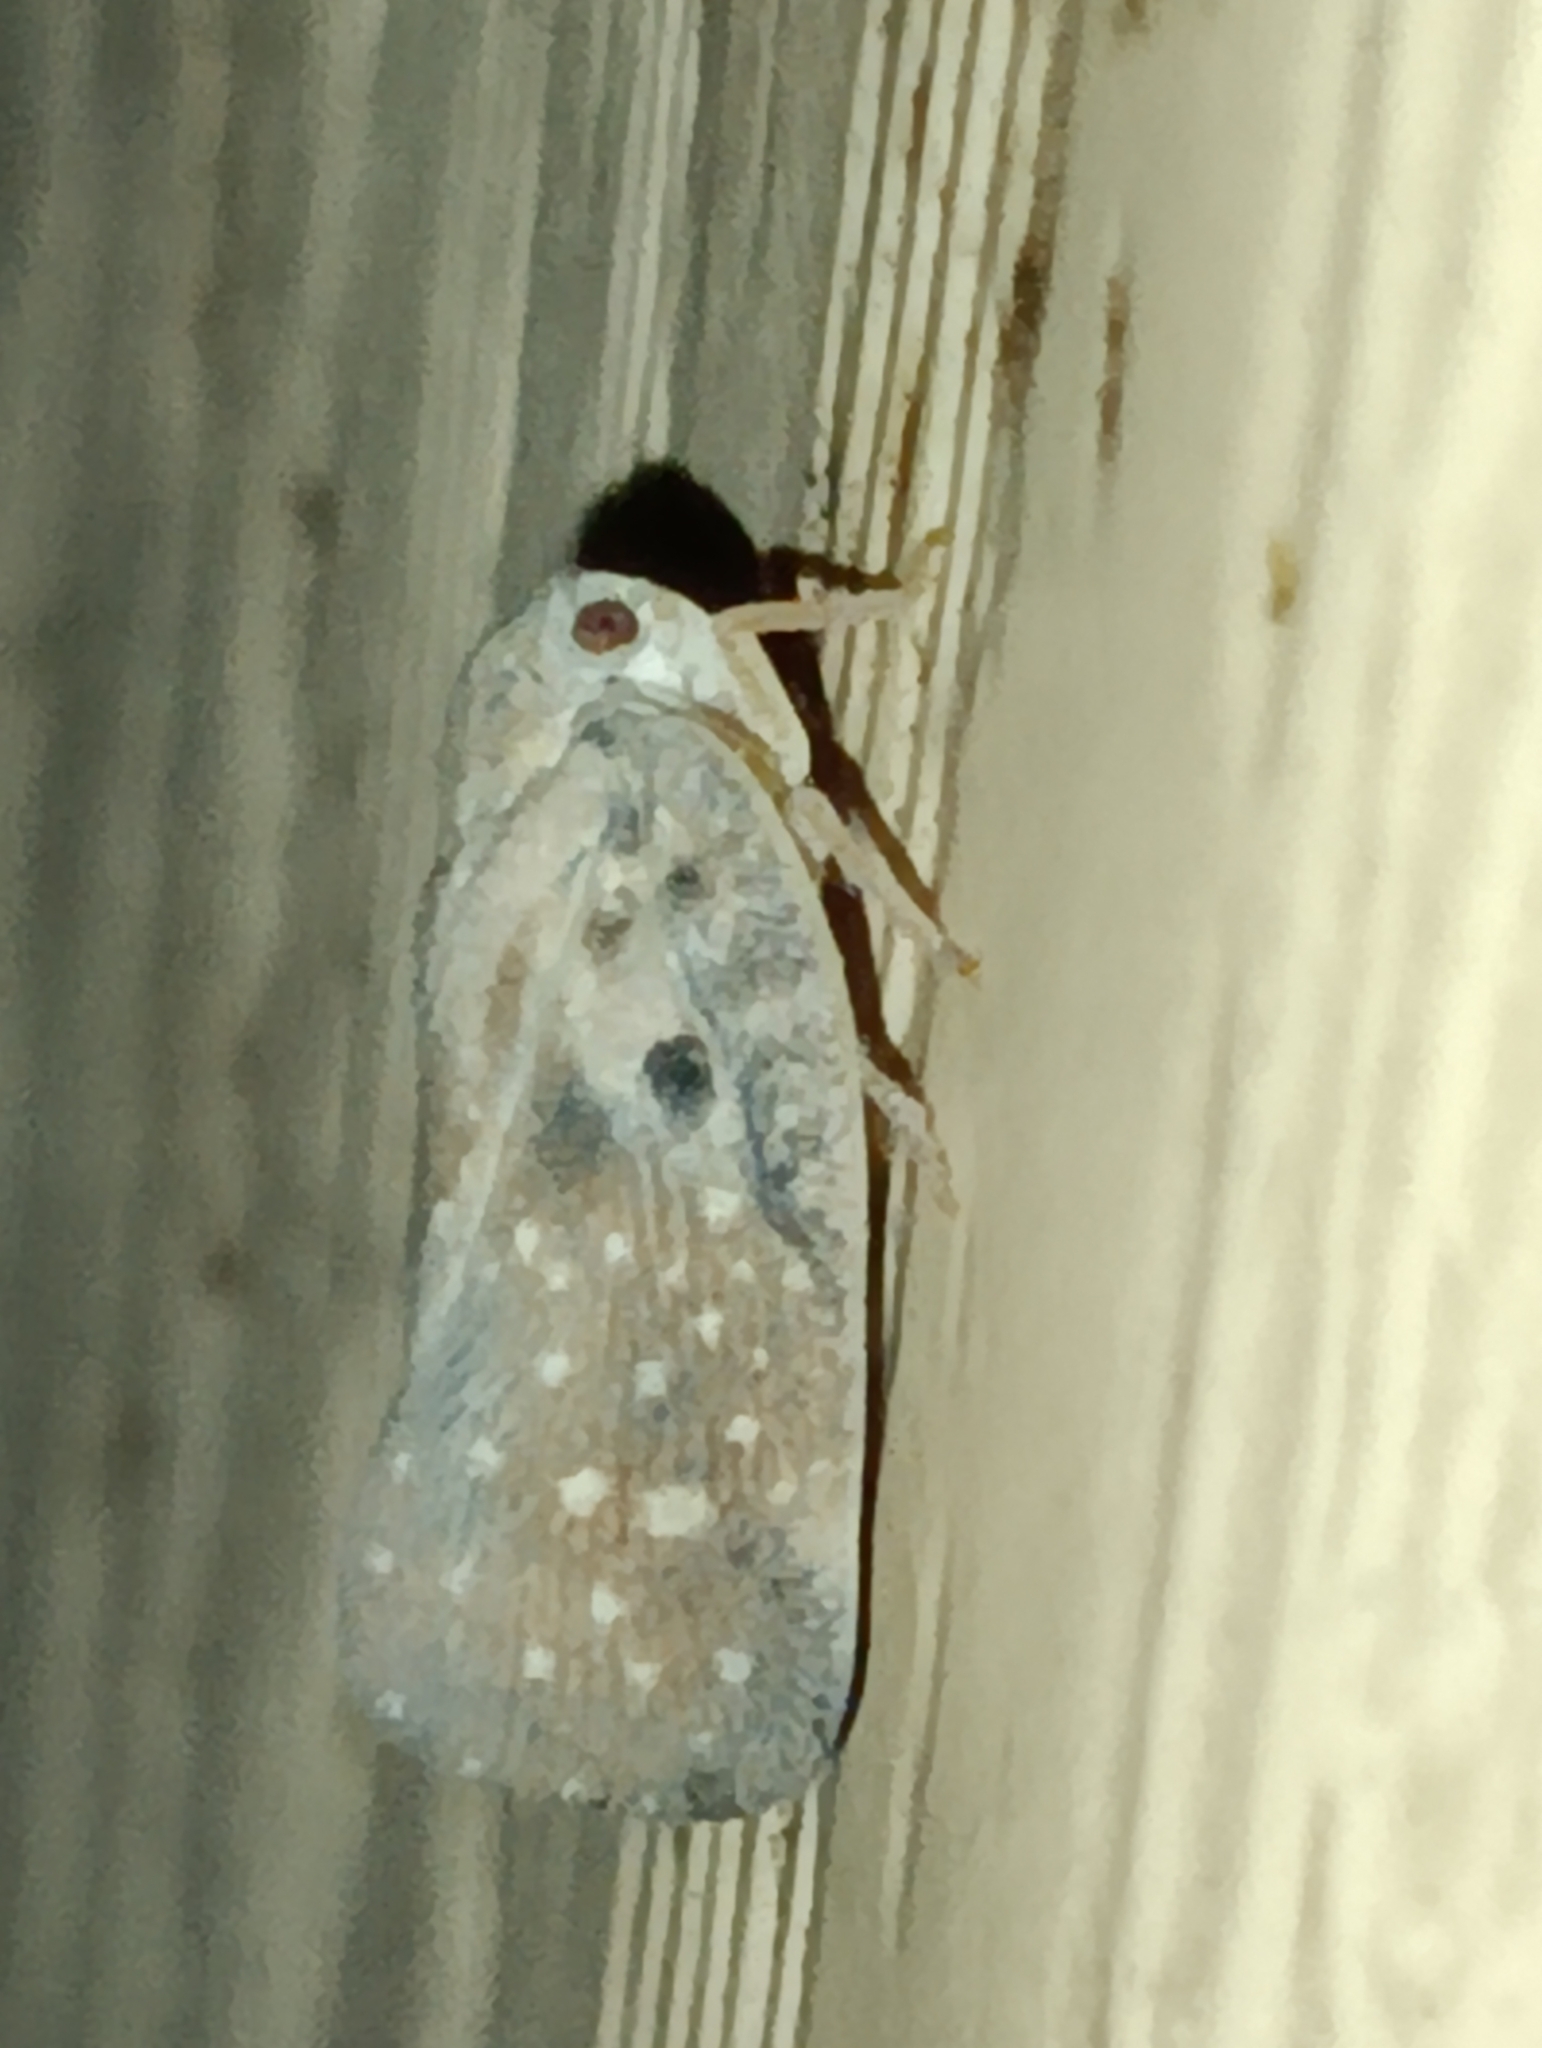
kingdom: Animalia
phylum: Arthropoda
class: Insecta
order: Hemiptera
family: Flatidae
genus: Metcalfa
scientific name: Metcalfa pruinosa
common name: Citrus flatid planthopper
